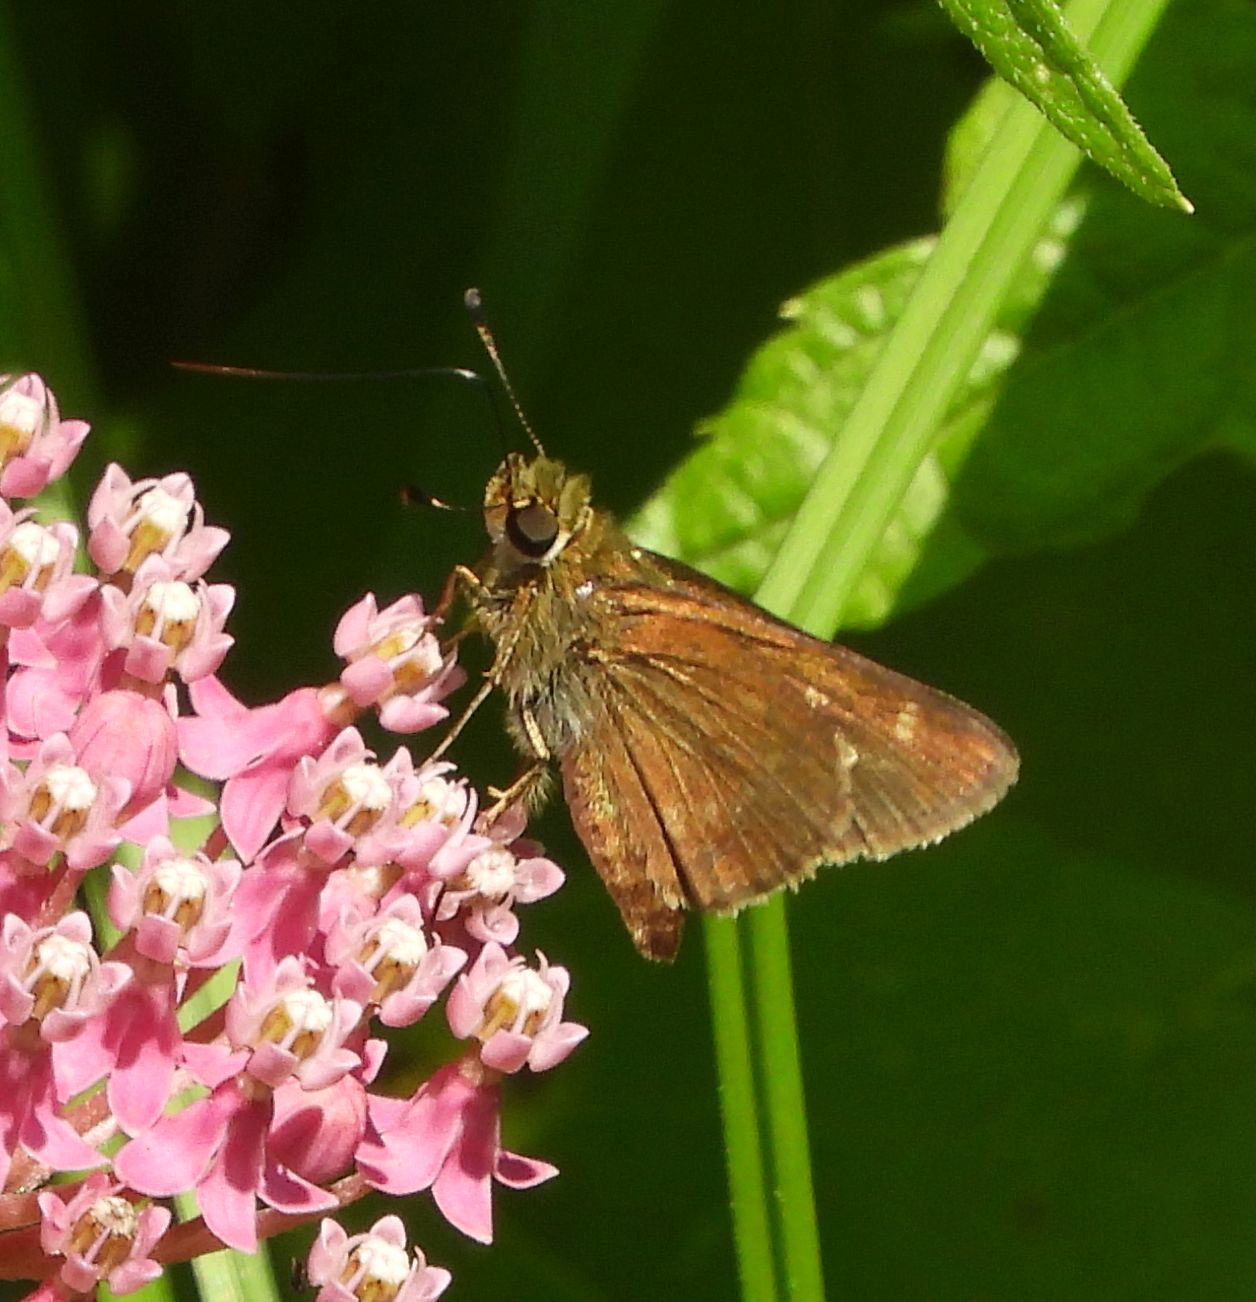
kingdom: Animalia
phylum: Arthropoda
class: Insecta
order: Lepidoptera
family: Hesperiidae
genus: Vernia
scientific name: Vernia verna
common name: Little glassywing
